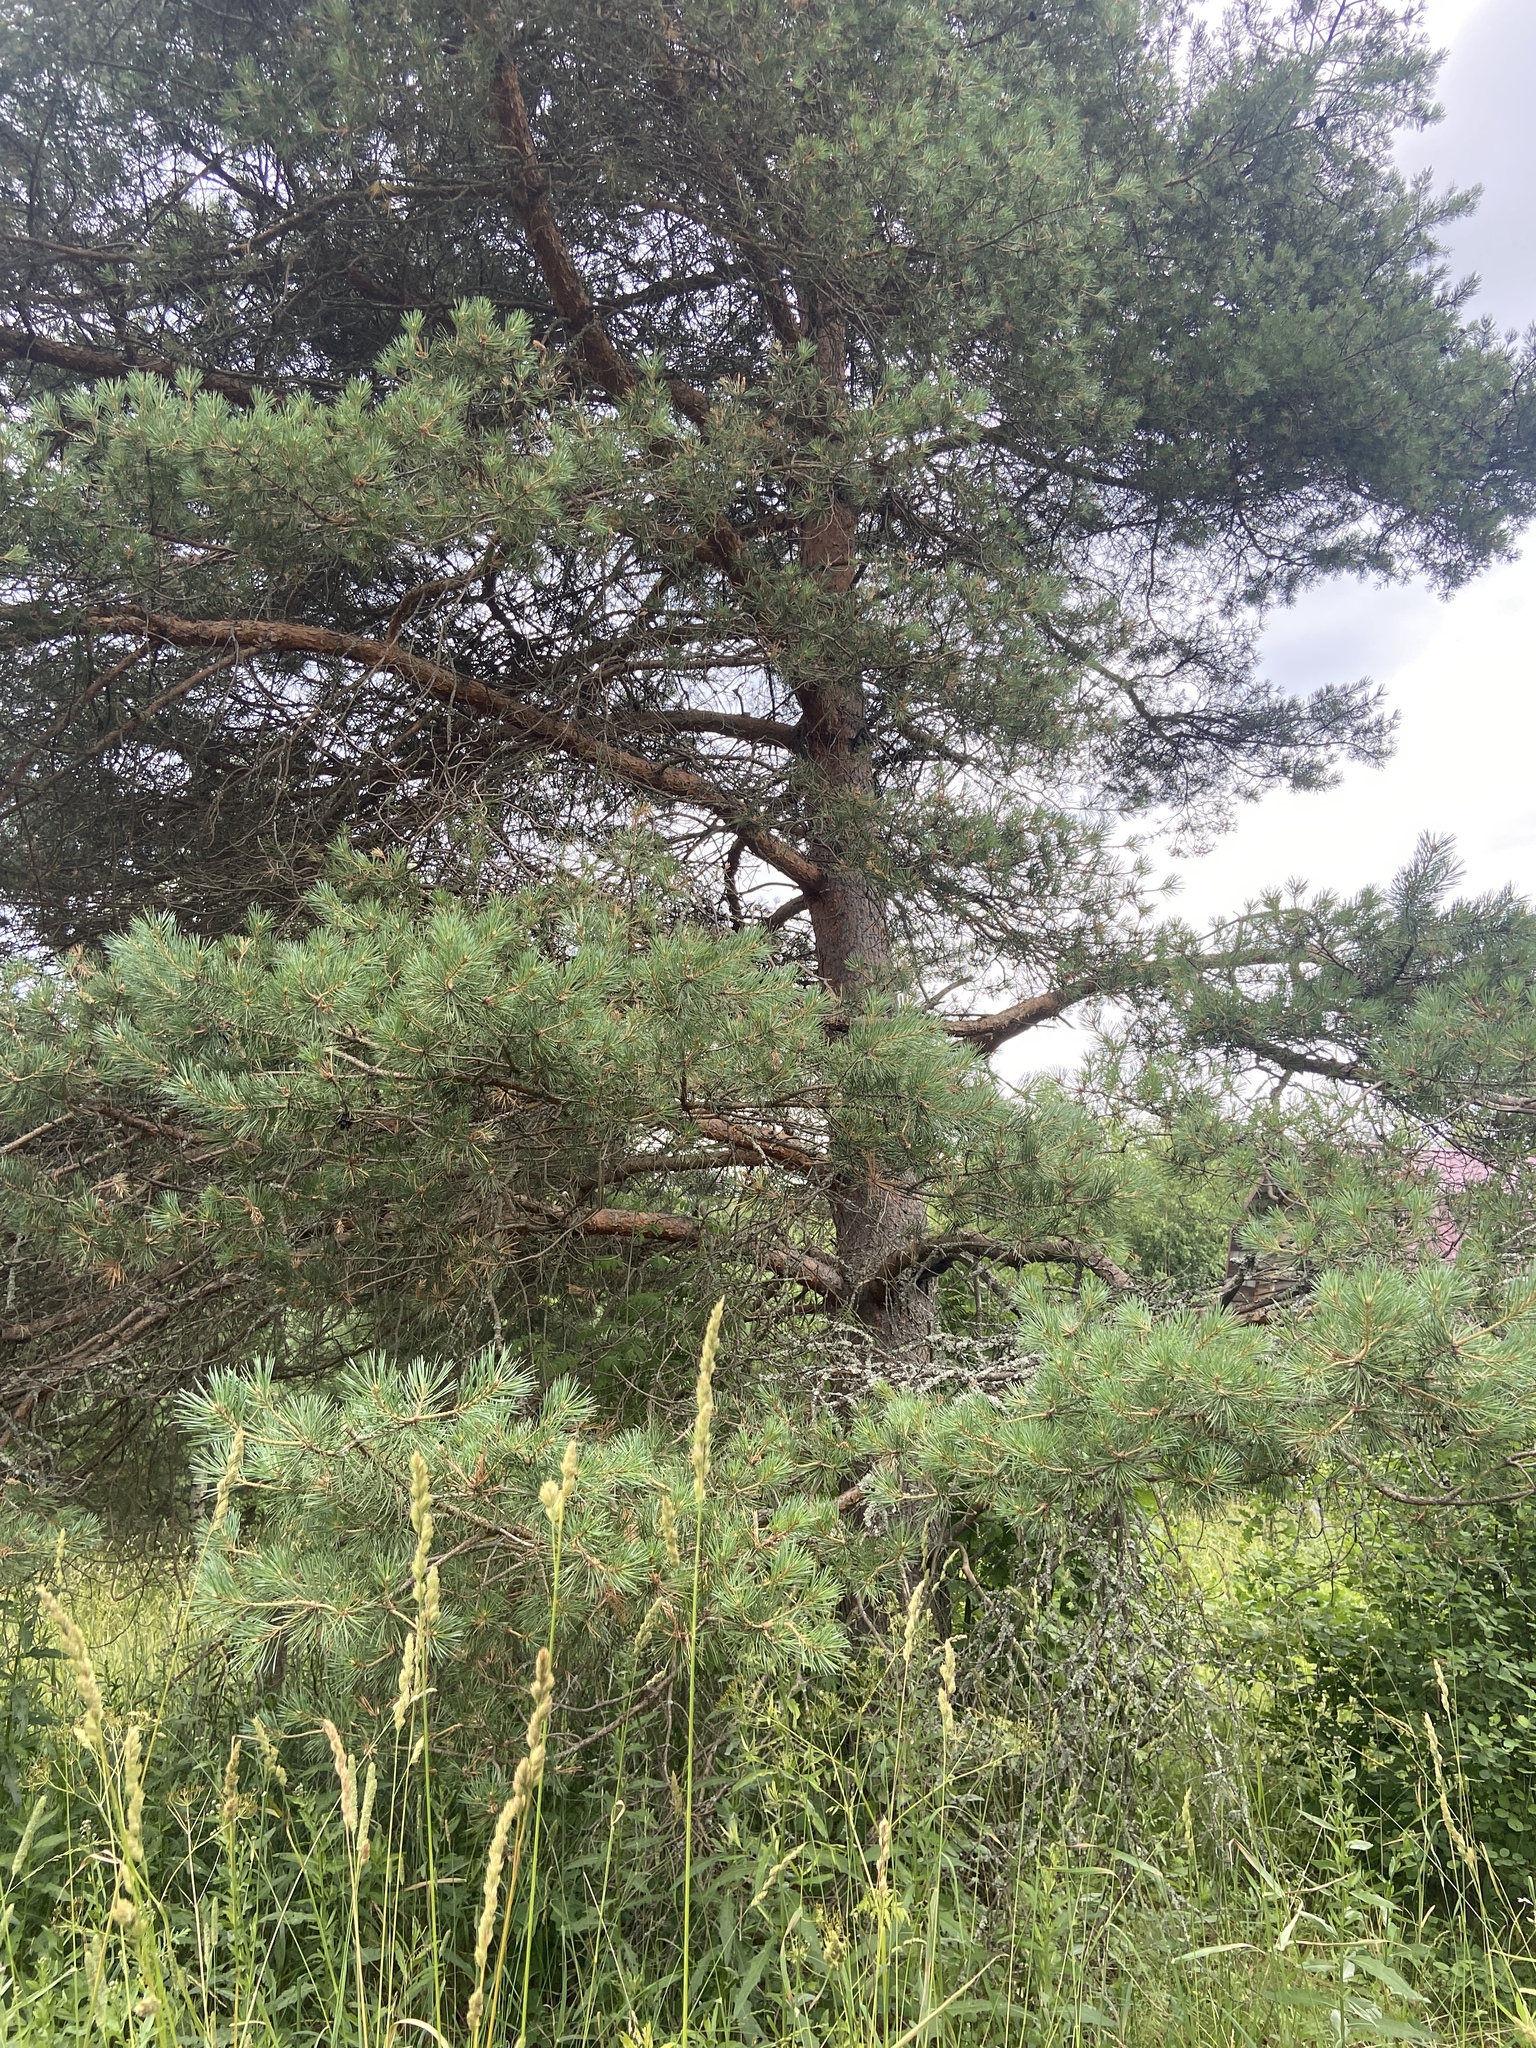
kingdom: Plantae
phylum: Tracheophyta
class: Pinopsida
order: Pinales
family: Pinaceae
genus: Pinus
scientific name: Pinus sylvestris
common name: Scots pine
